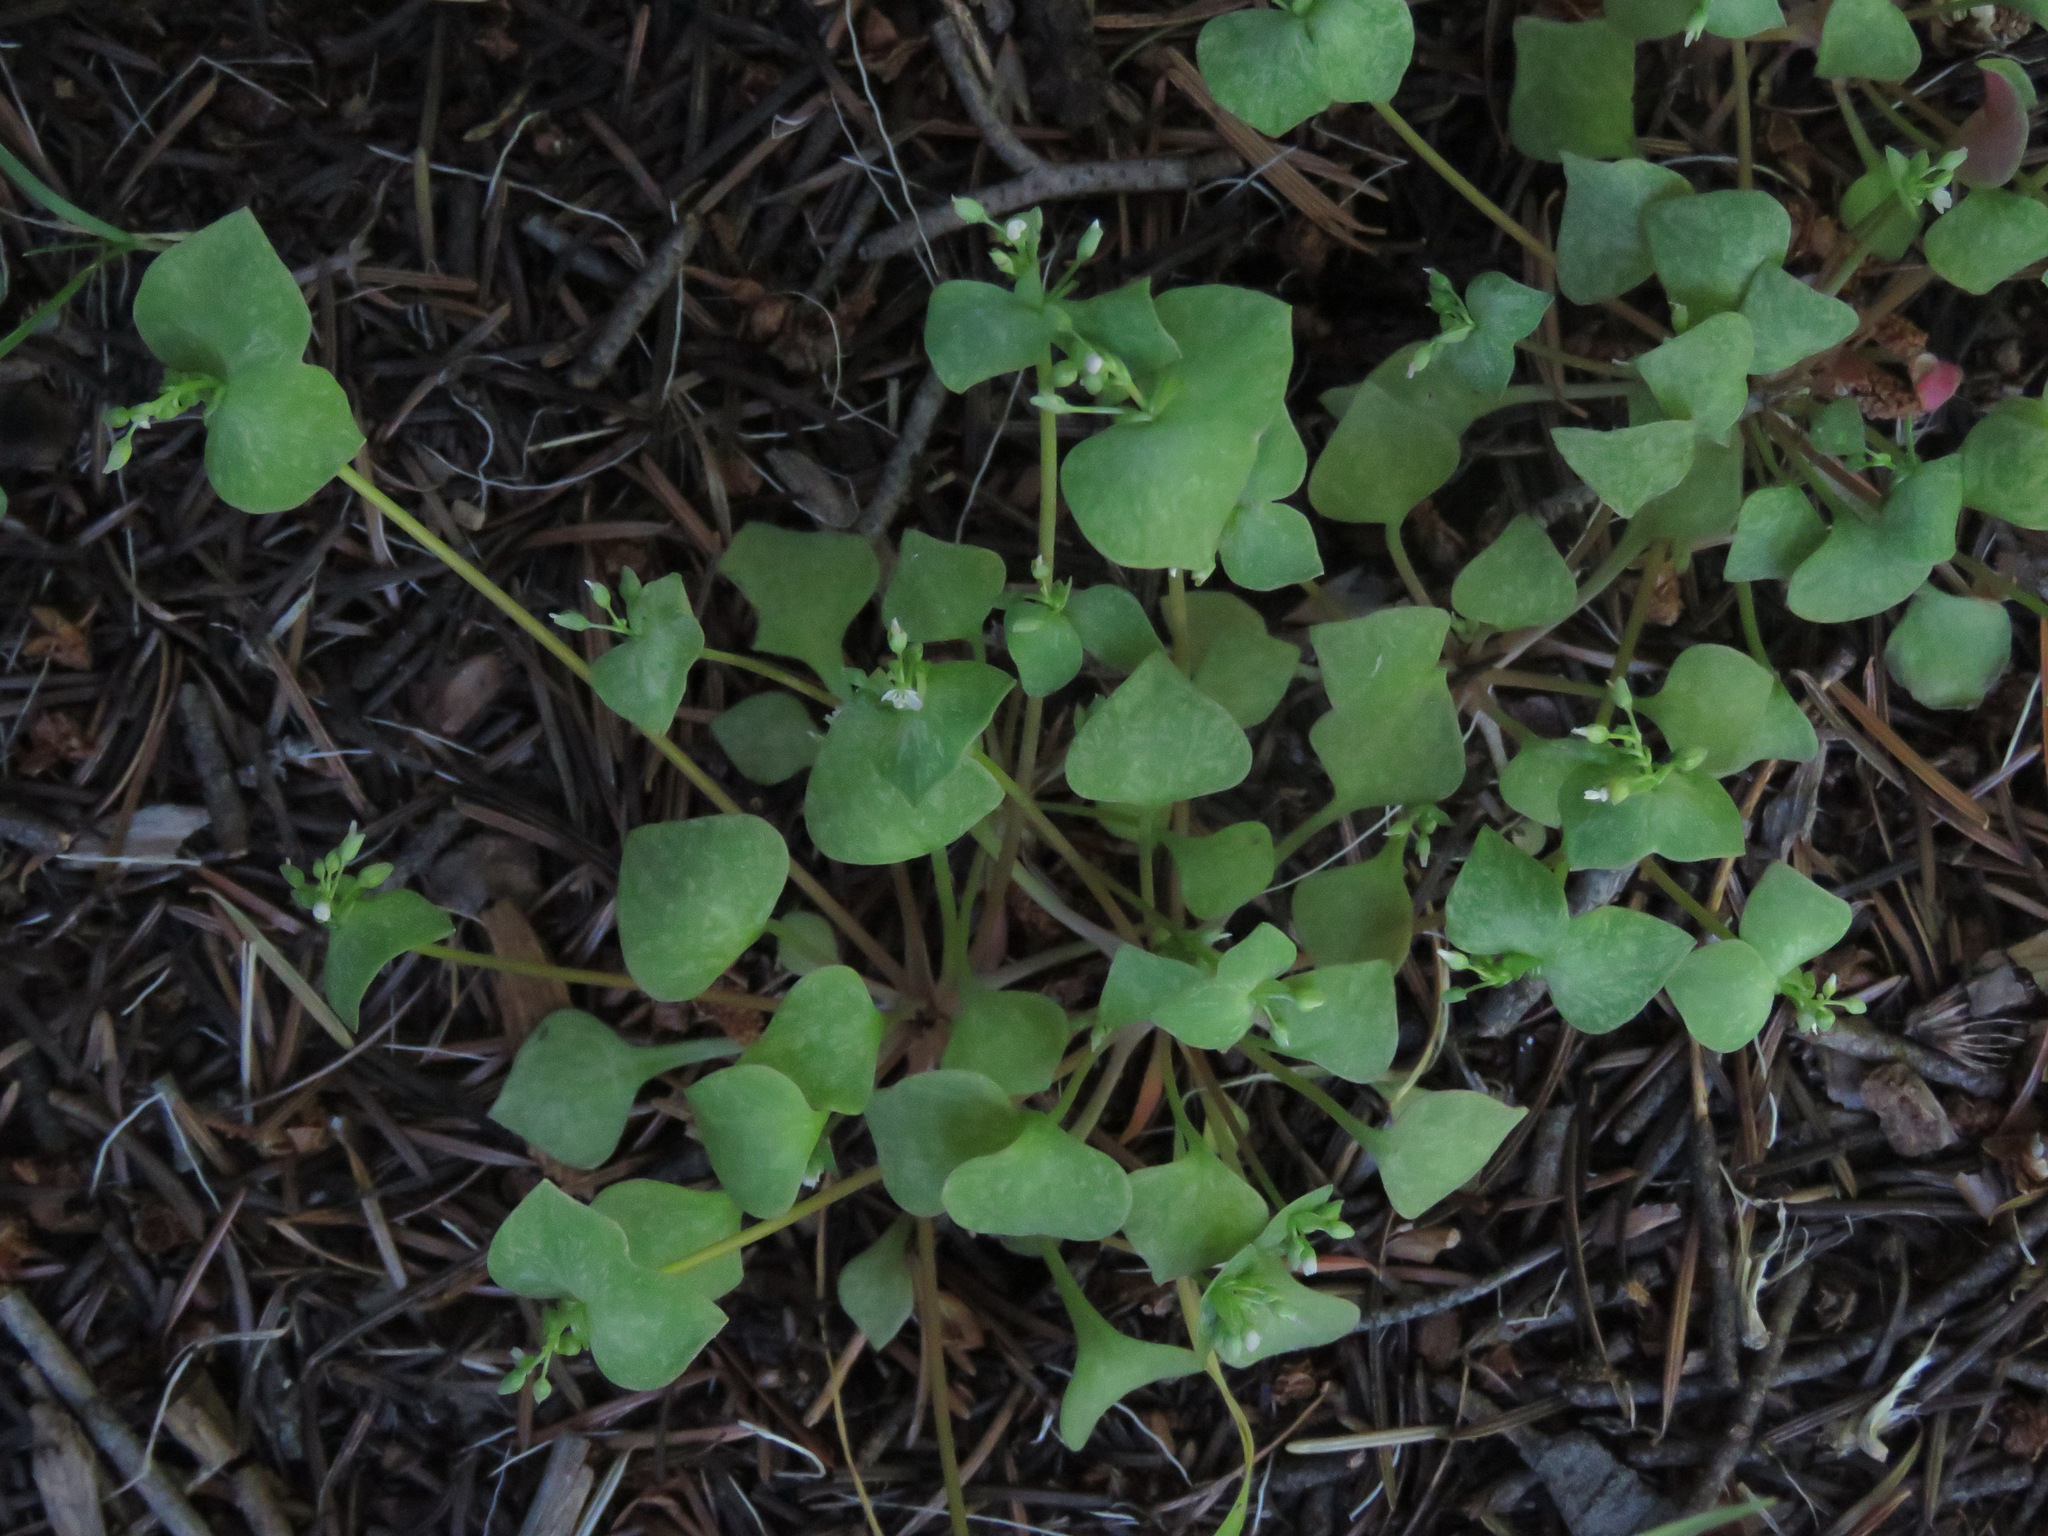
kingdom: Plantae
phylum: Tracheophyta
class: Magnoliopsida
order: Caryophyllales
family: Montiaceae
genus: Claytonia
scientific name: Claytonia rubra
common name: Erubescent miner's-lettuce
